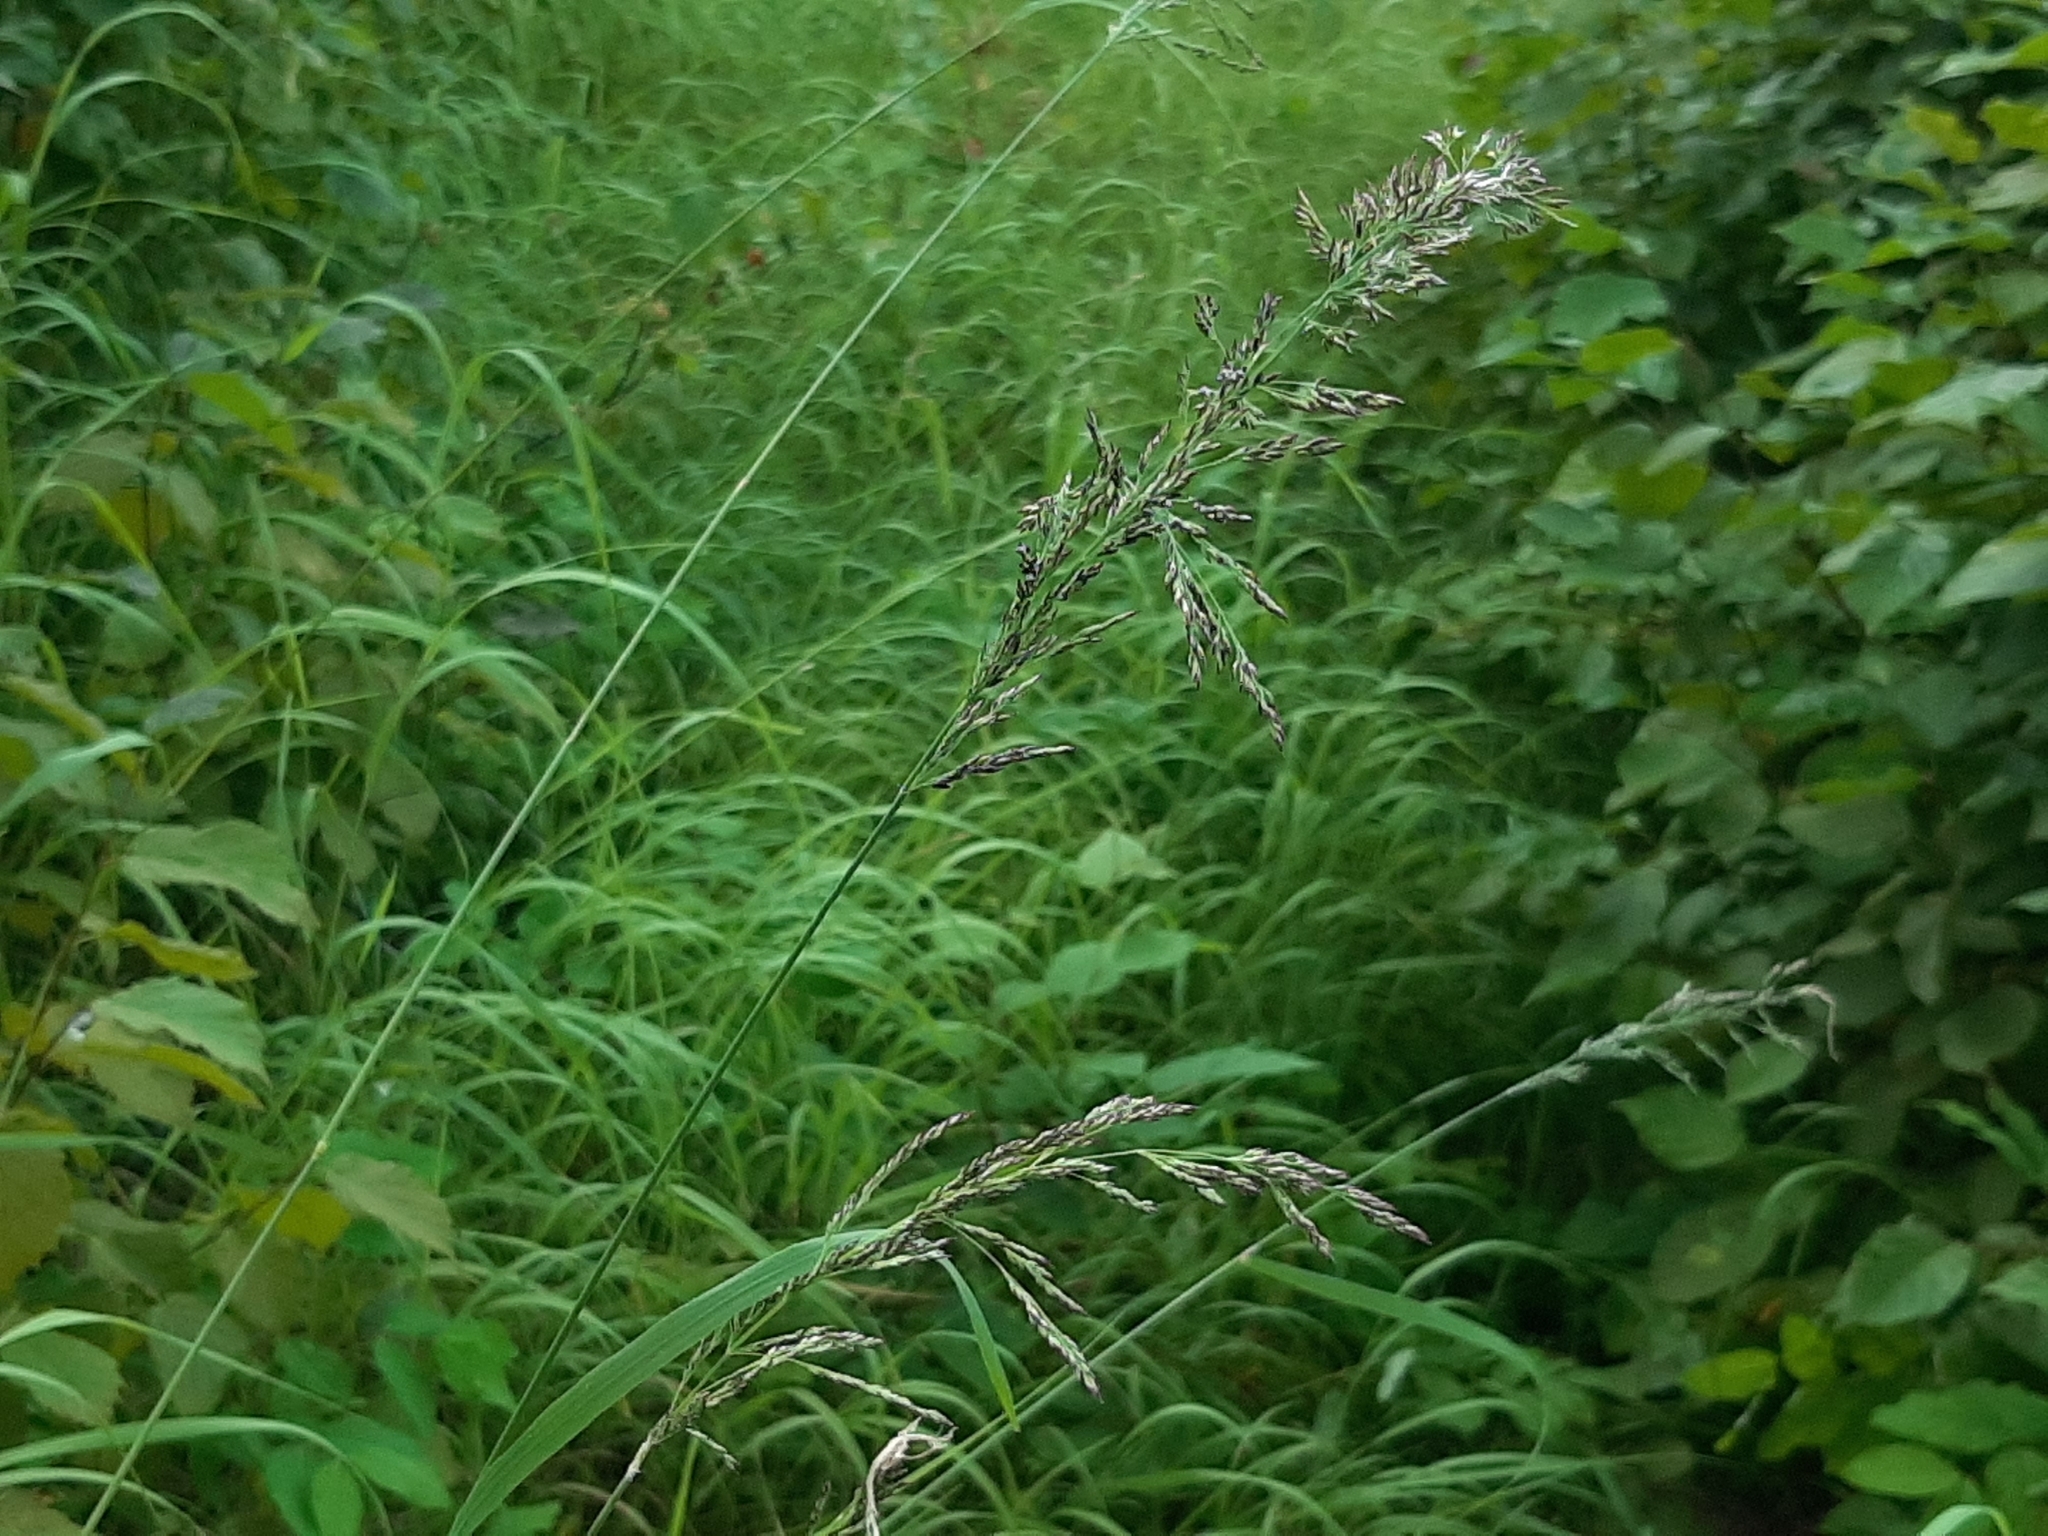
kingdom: Plantae
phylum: Tracheophyta
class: Liliopsida
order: Poales
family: Poaceae
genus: Calamagrostis
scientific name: Calamagrostis canadensis
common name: Canada bluejoint
